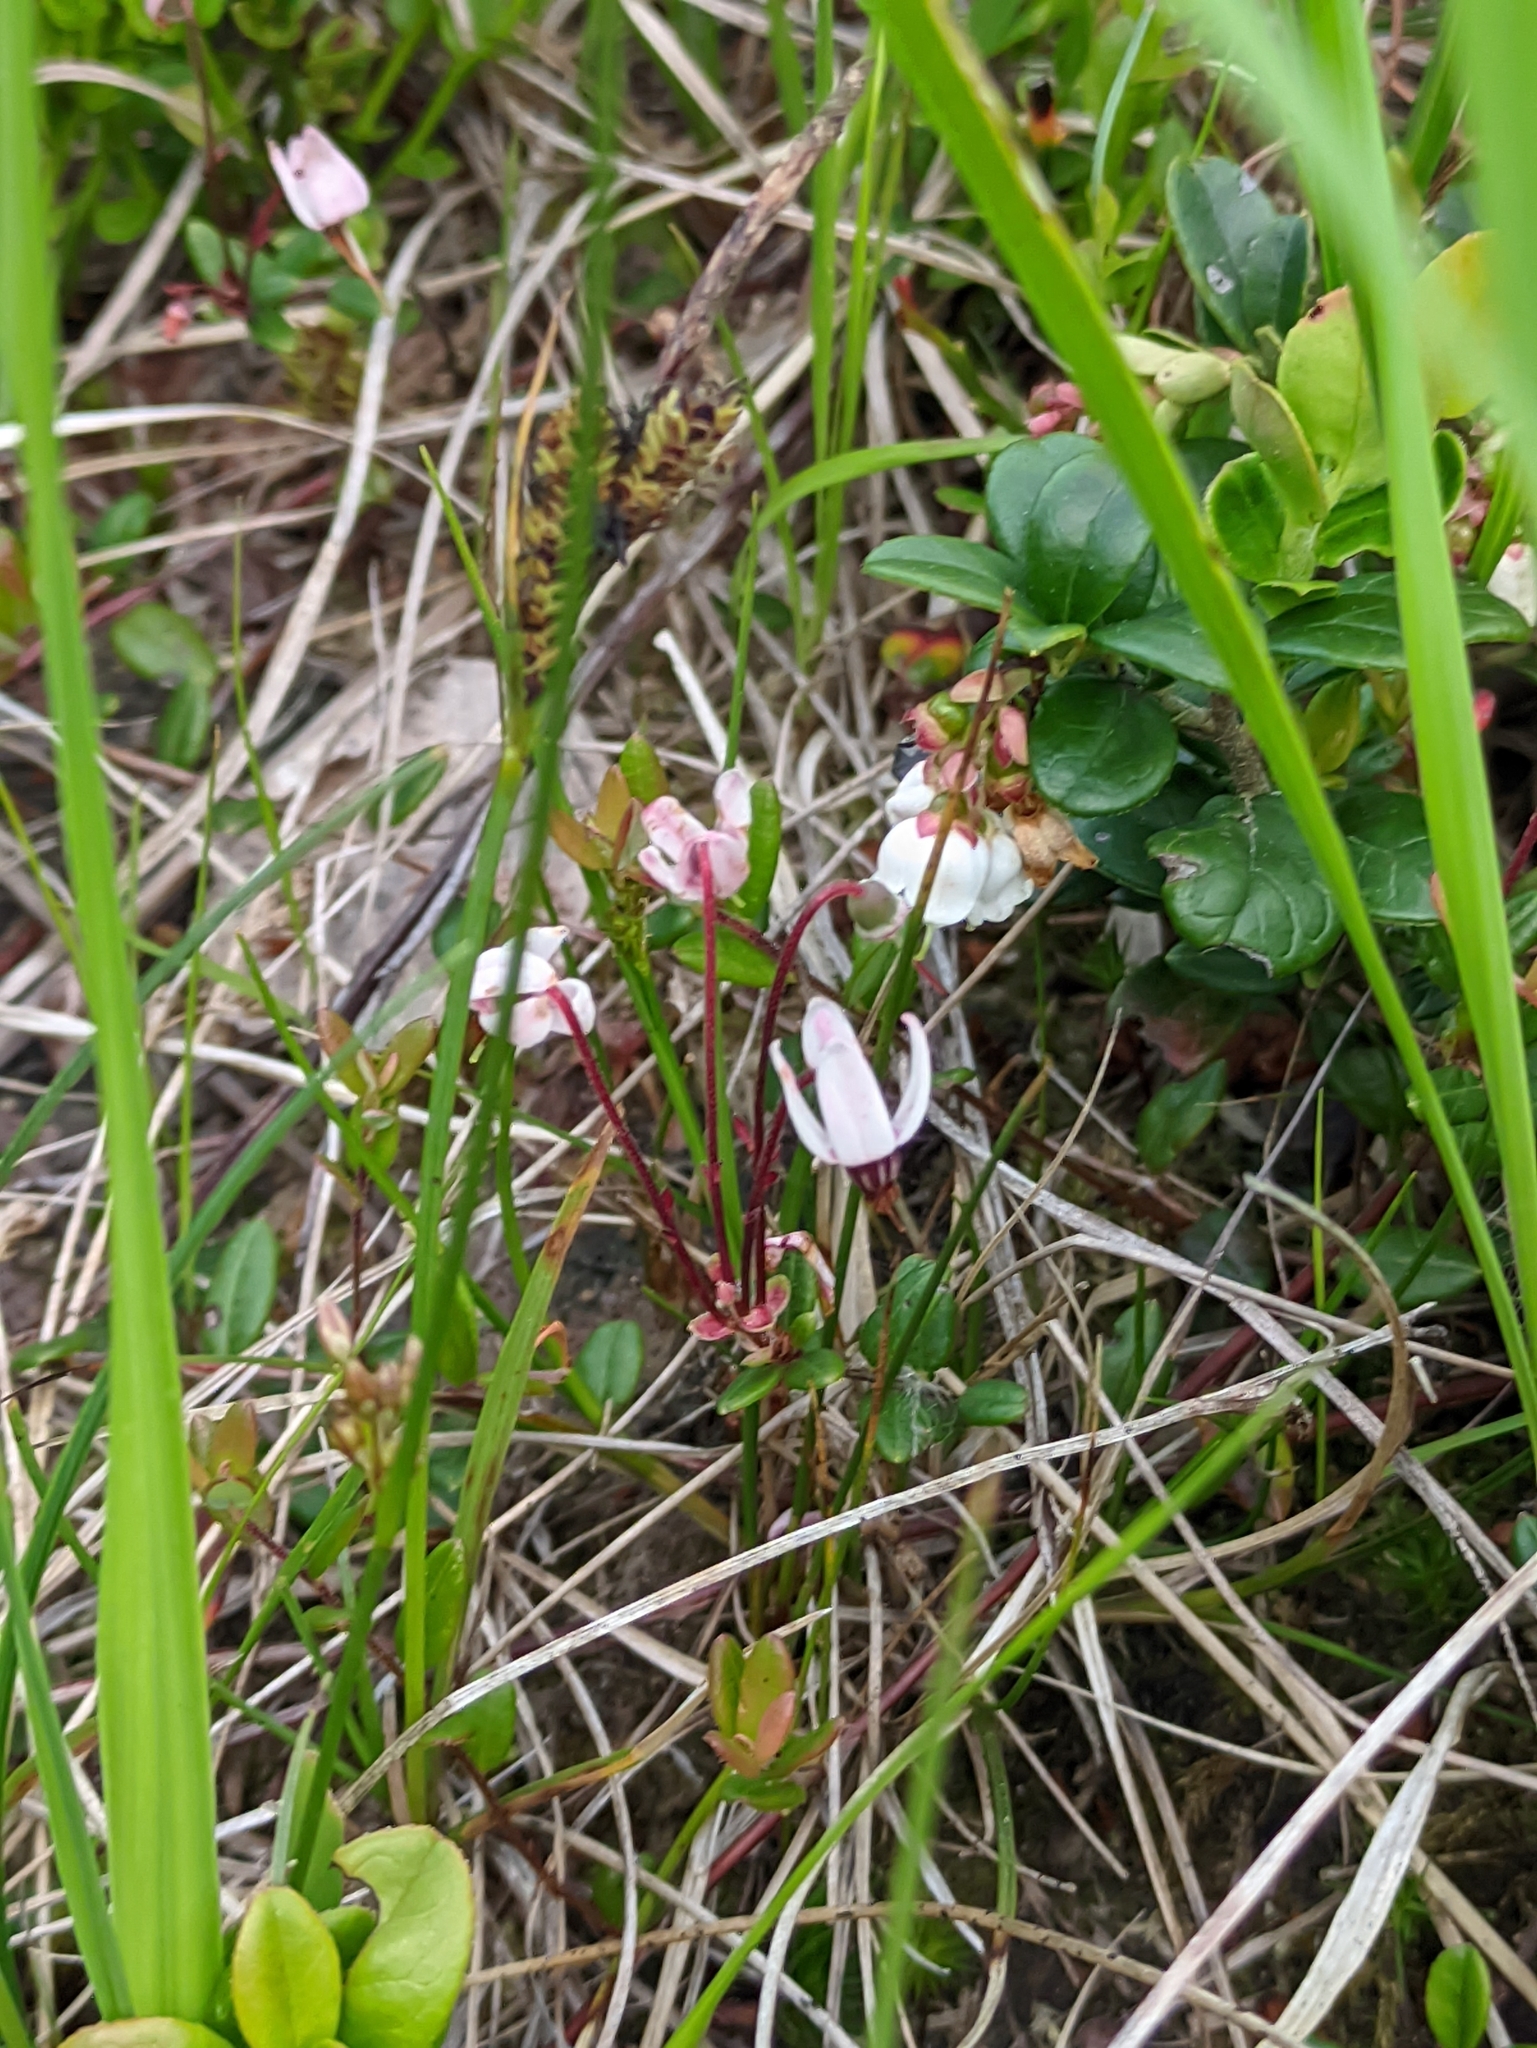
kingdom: Plantae
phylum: Tracheophyta
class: Magnoliopsida
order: Ericales
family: Ericaceae
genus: Vaccinium
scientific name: Vaccinium oxycoccos
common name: Cranberry
